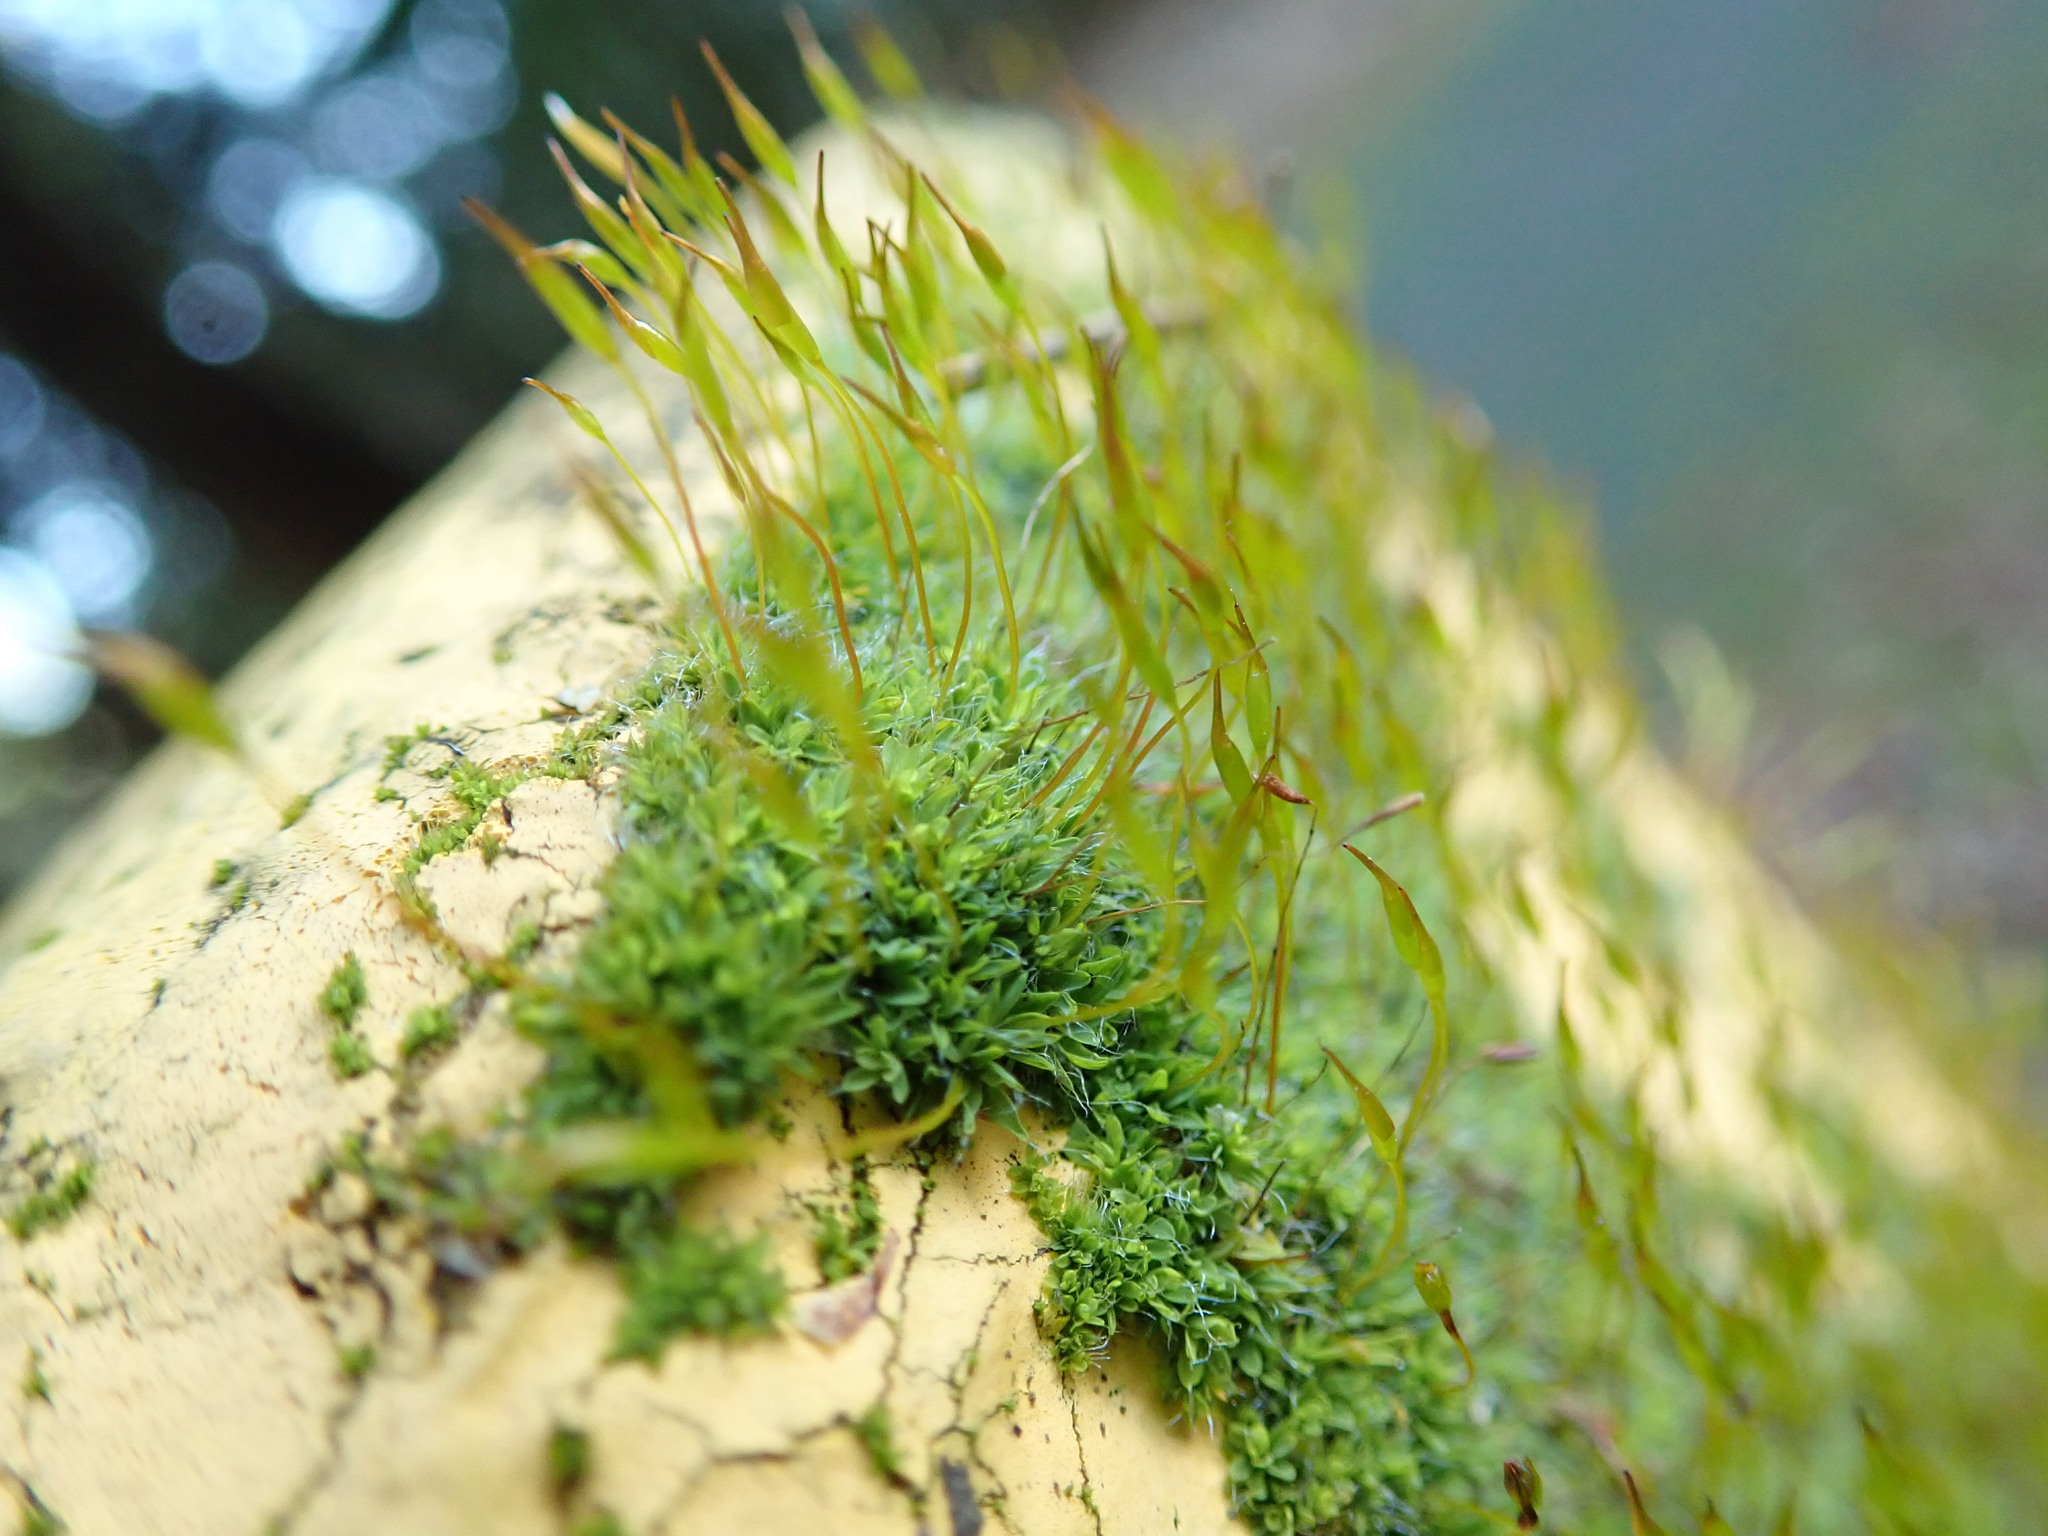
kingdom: Plantae
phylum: Bryophyta
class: Bryopsida
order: Pottiales
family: Pottiaceae
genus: Tortula
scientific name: Tortula muralis
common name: Wall screw-moss
